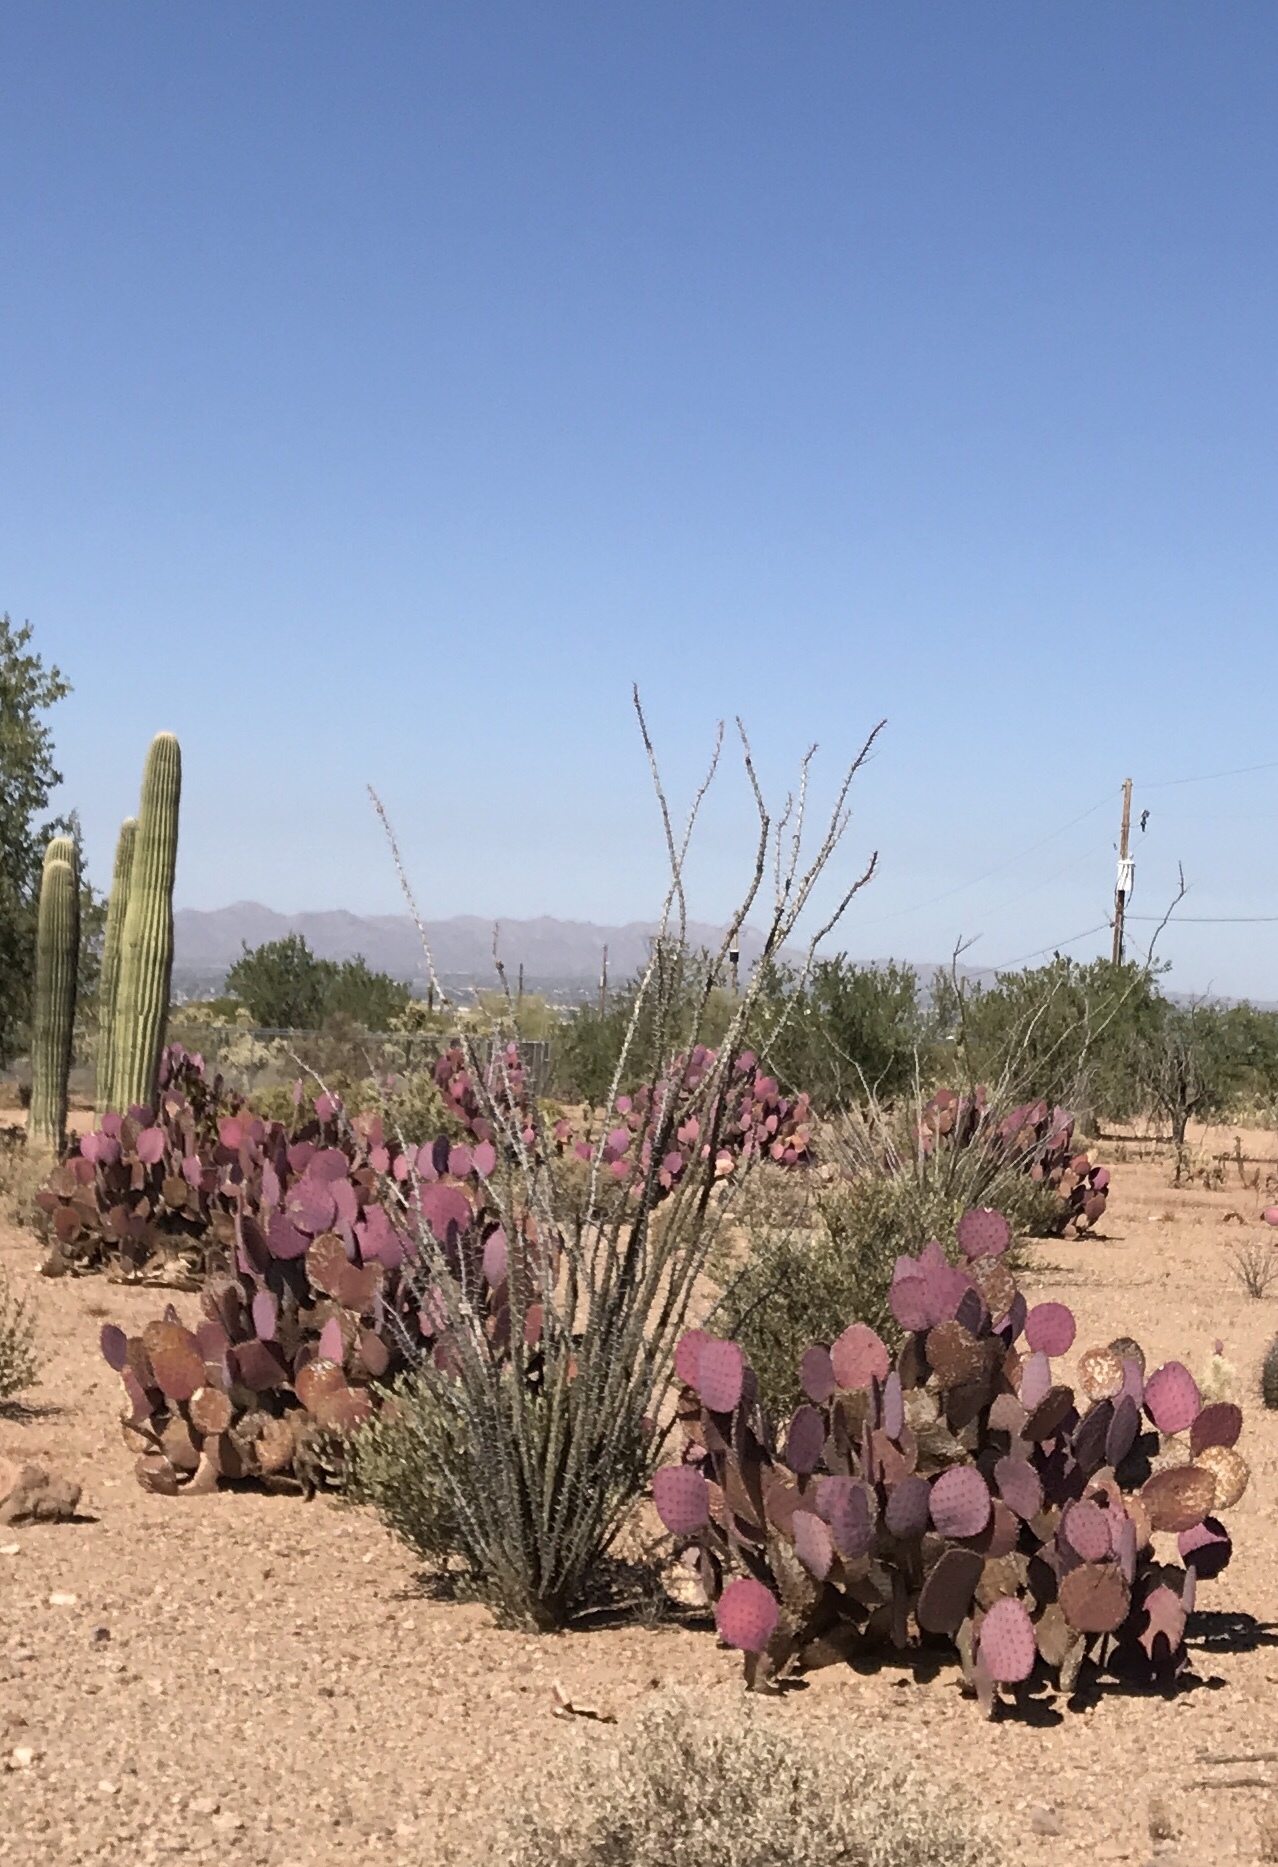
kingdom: Plantae
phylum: Tracheophyta
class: Magnoliopsida
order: Caryophyllales
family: Cactaceae
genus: Opuntia
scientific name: Opuntia gosseliniana
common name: Violet prickly-pear
